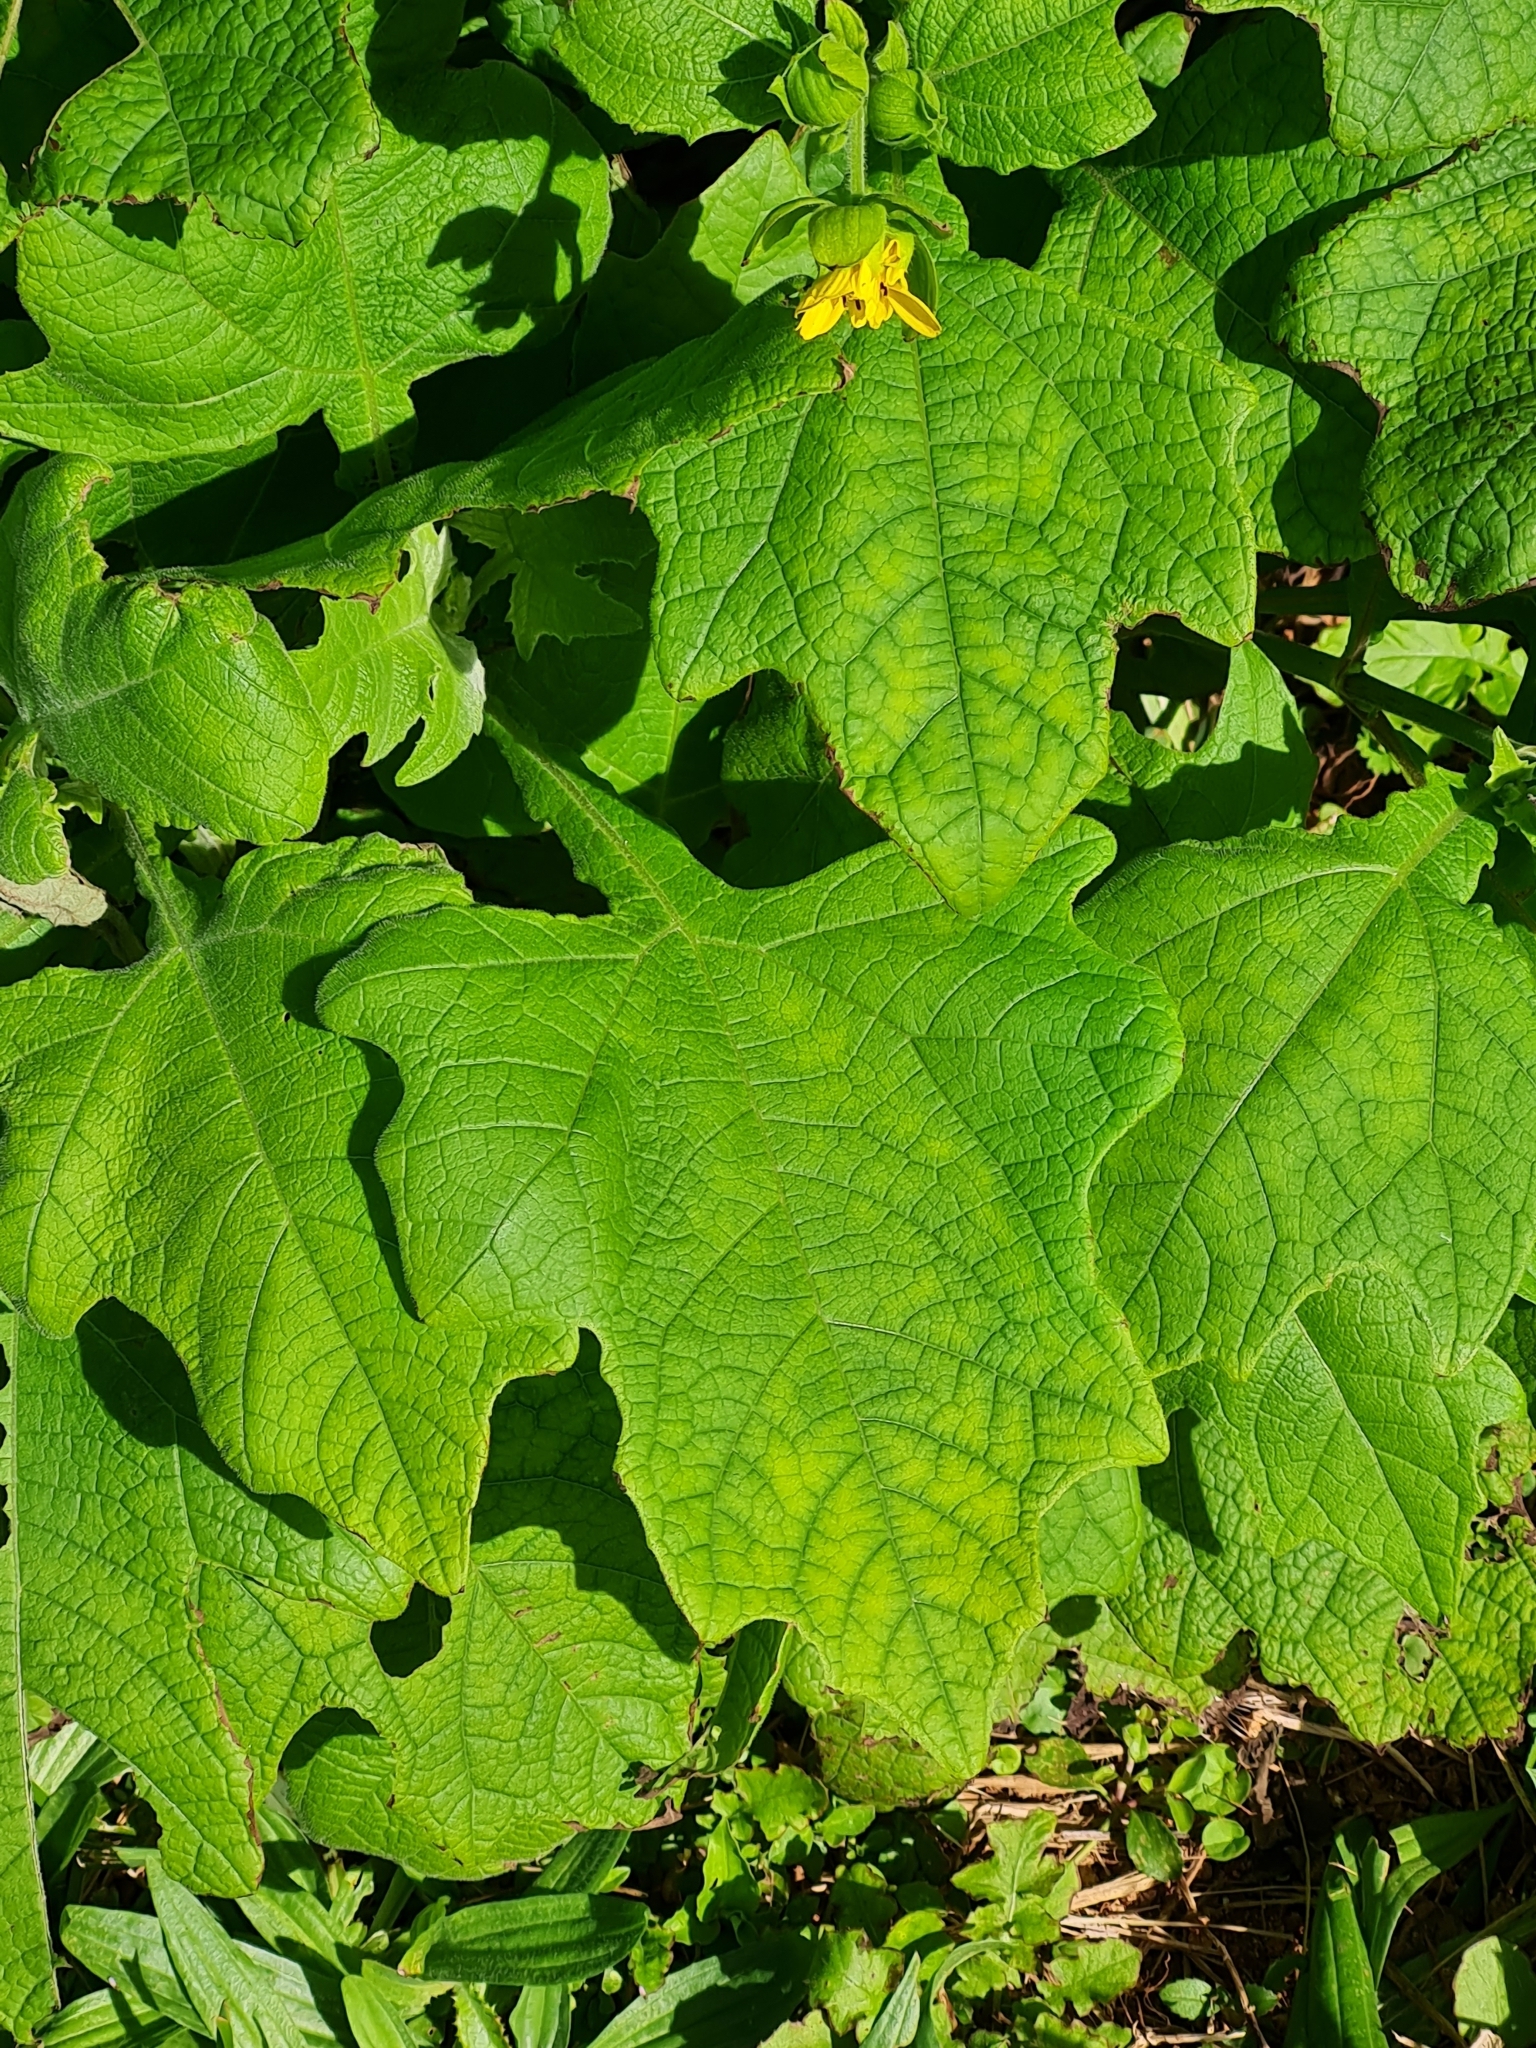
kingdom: Plantae
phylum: Tracheophyta
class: Magnoliopsida
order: Asterales
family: Asteraceae
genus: Smallanthus
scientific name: Smallanthus uvedalia
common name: Bear's-foot
